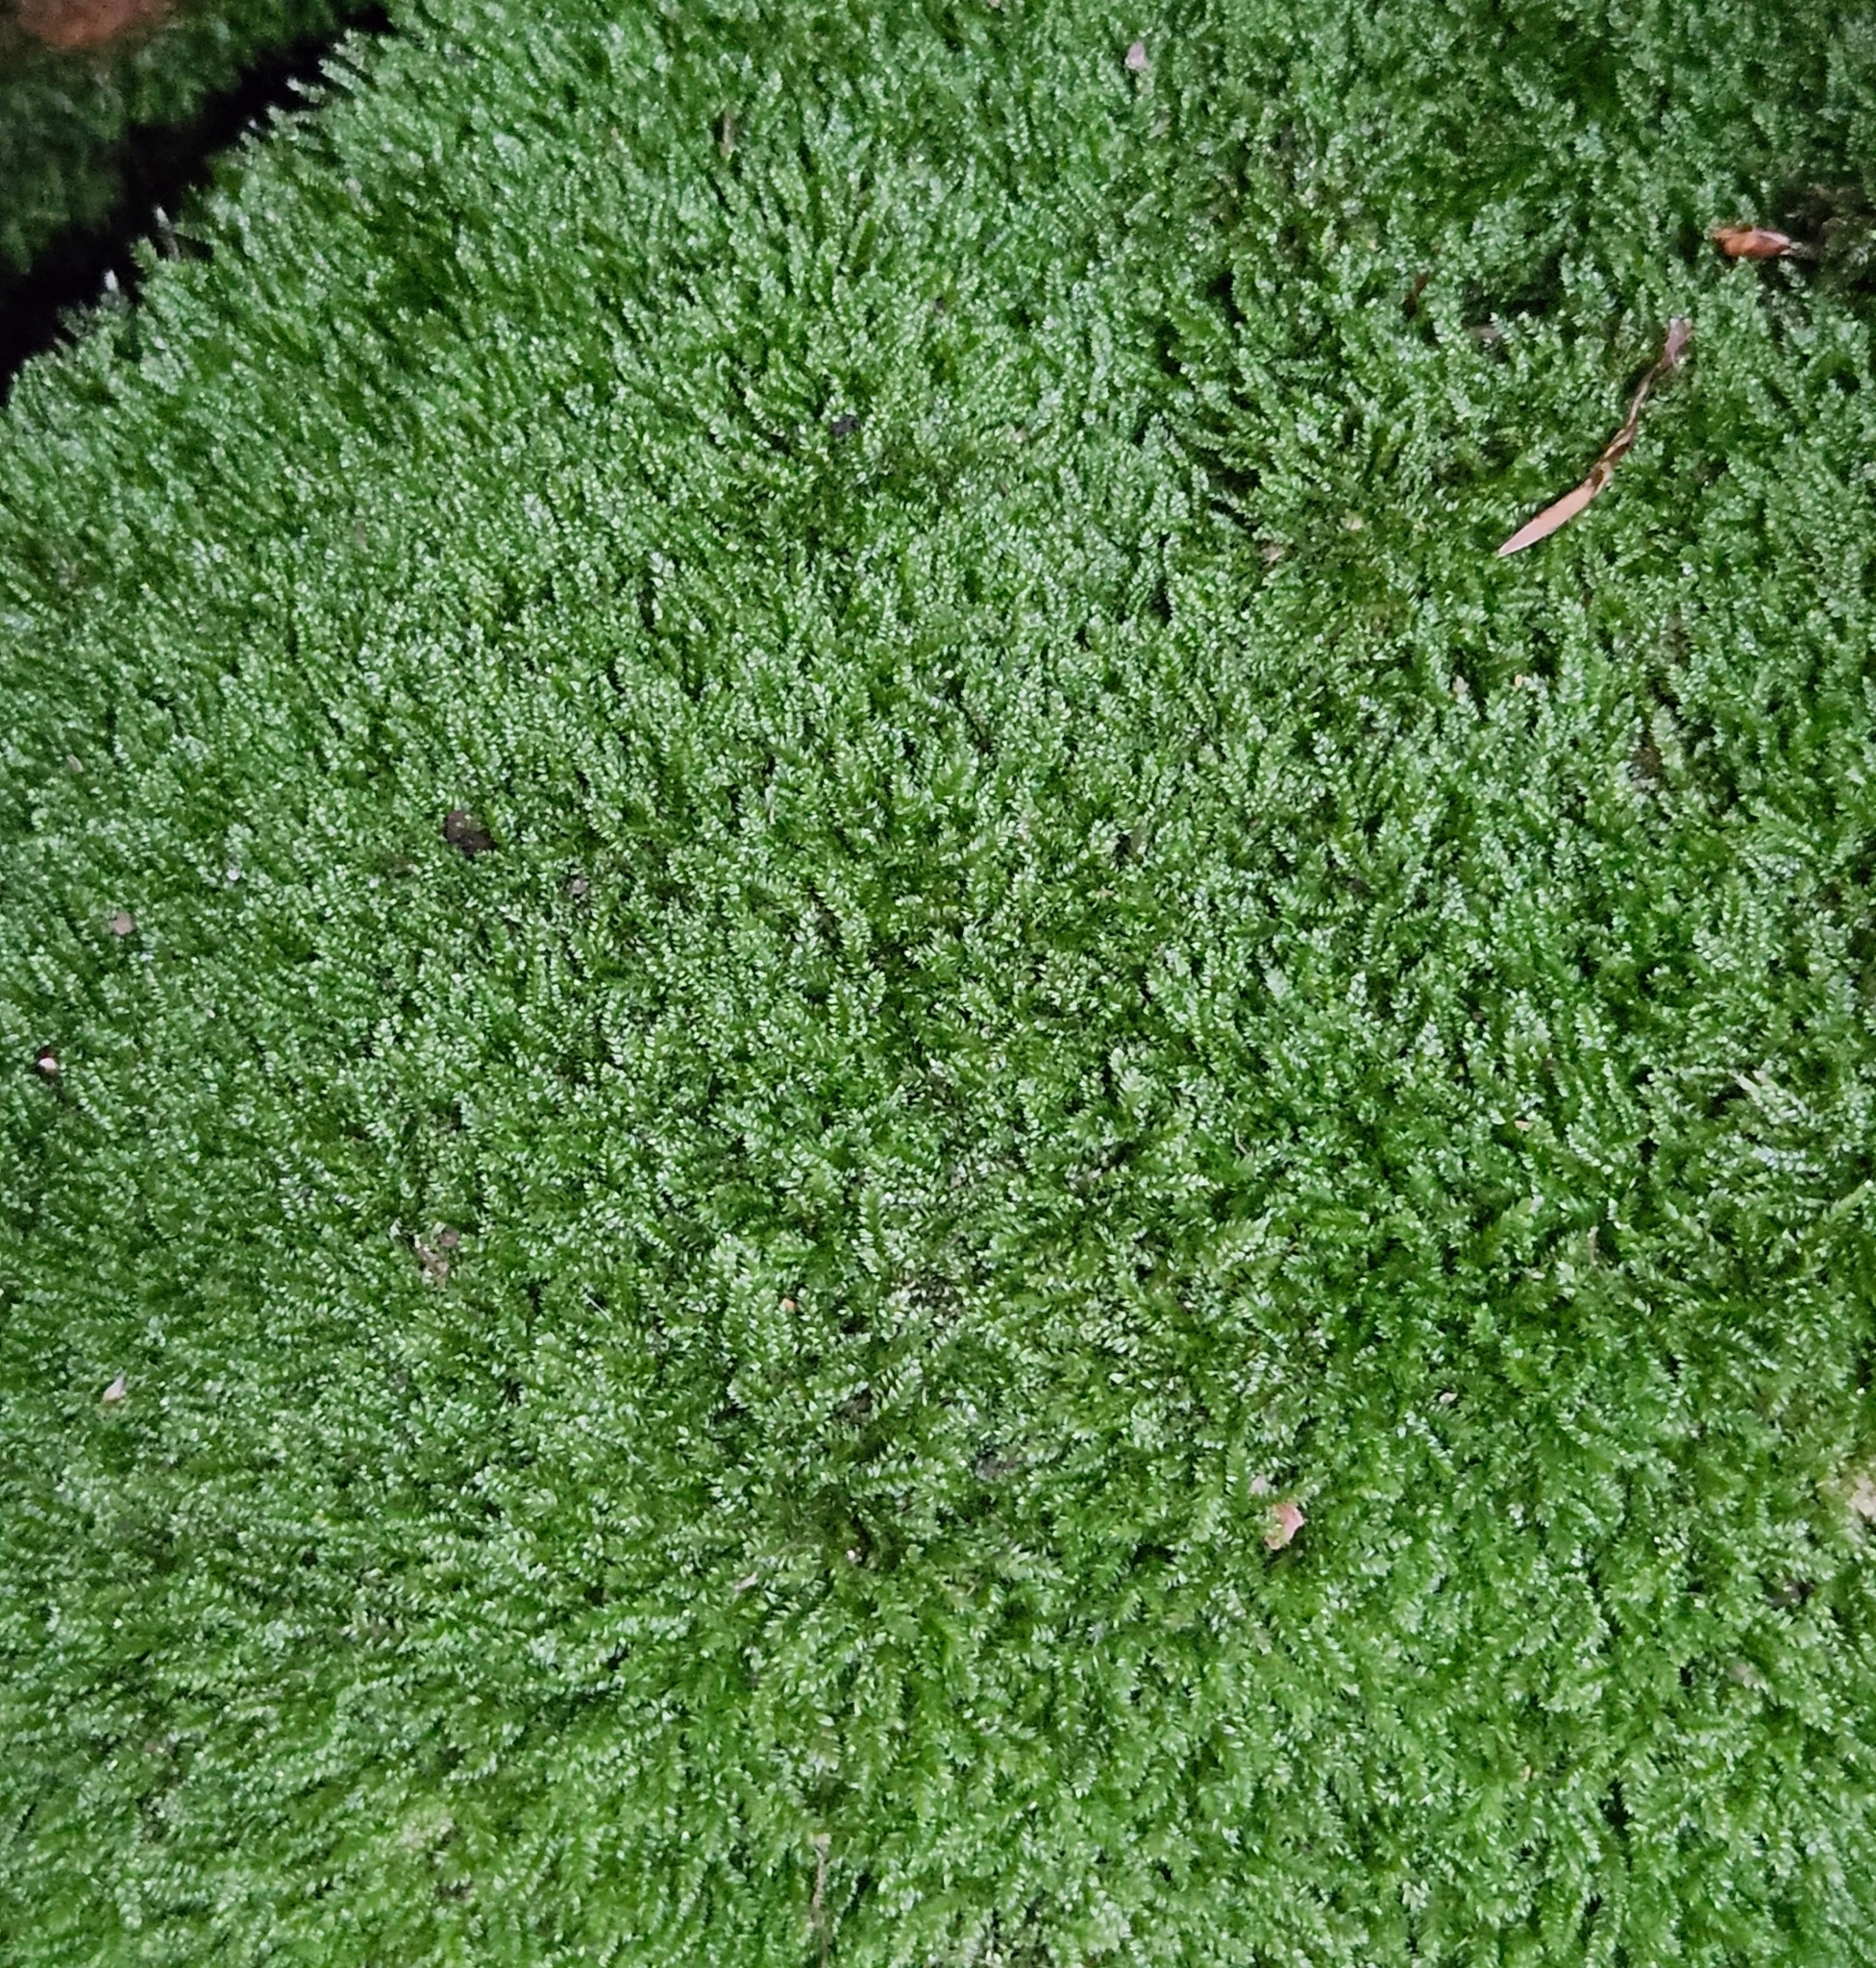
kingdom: Plantae
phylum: Bryophyta
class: Bryopsida
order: Hypnales
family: Plagiotheciaceae
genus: Pseudotaxiphyllum
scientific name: Pseudotaxiphyllum elegans
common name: Elegant silk moss
